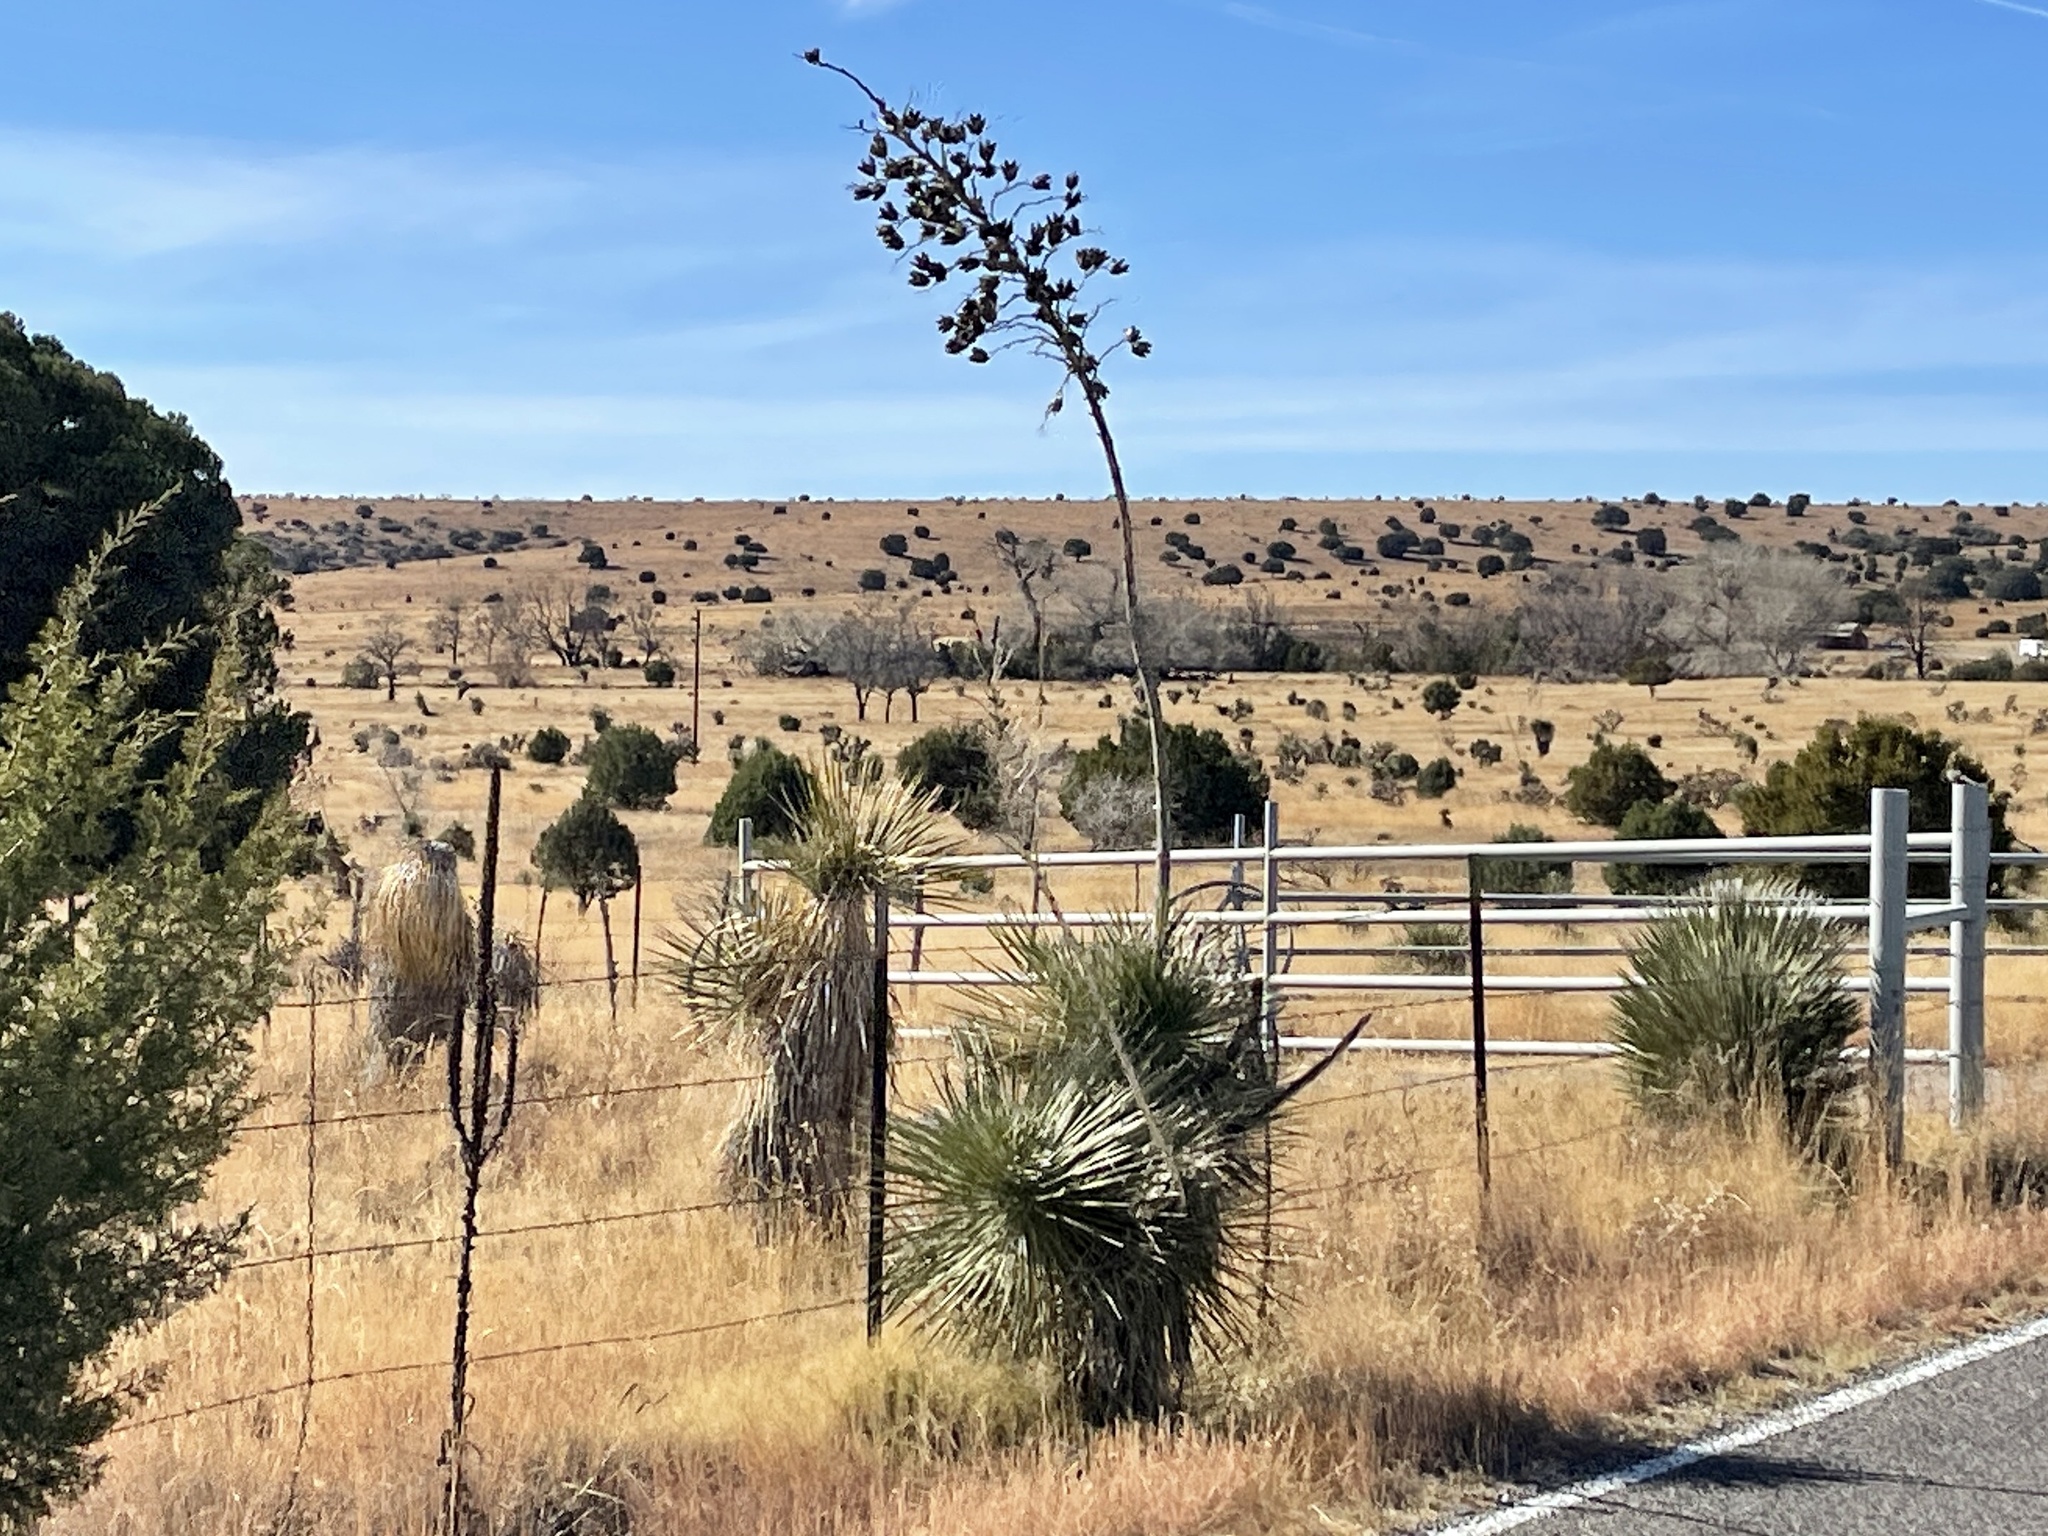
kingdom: Plantae
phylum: Tracheophyta
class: Liliopsida
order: Asparagales
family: Asparagaceae
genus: Yucca
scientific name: Yucca elata
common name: Palmella
